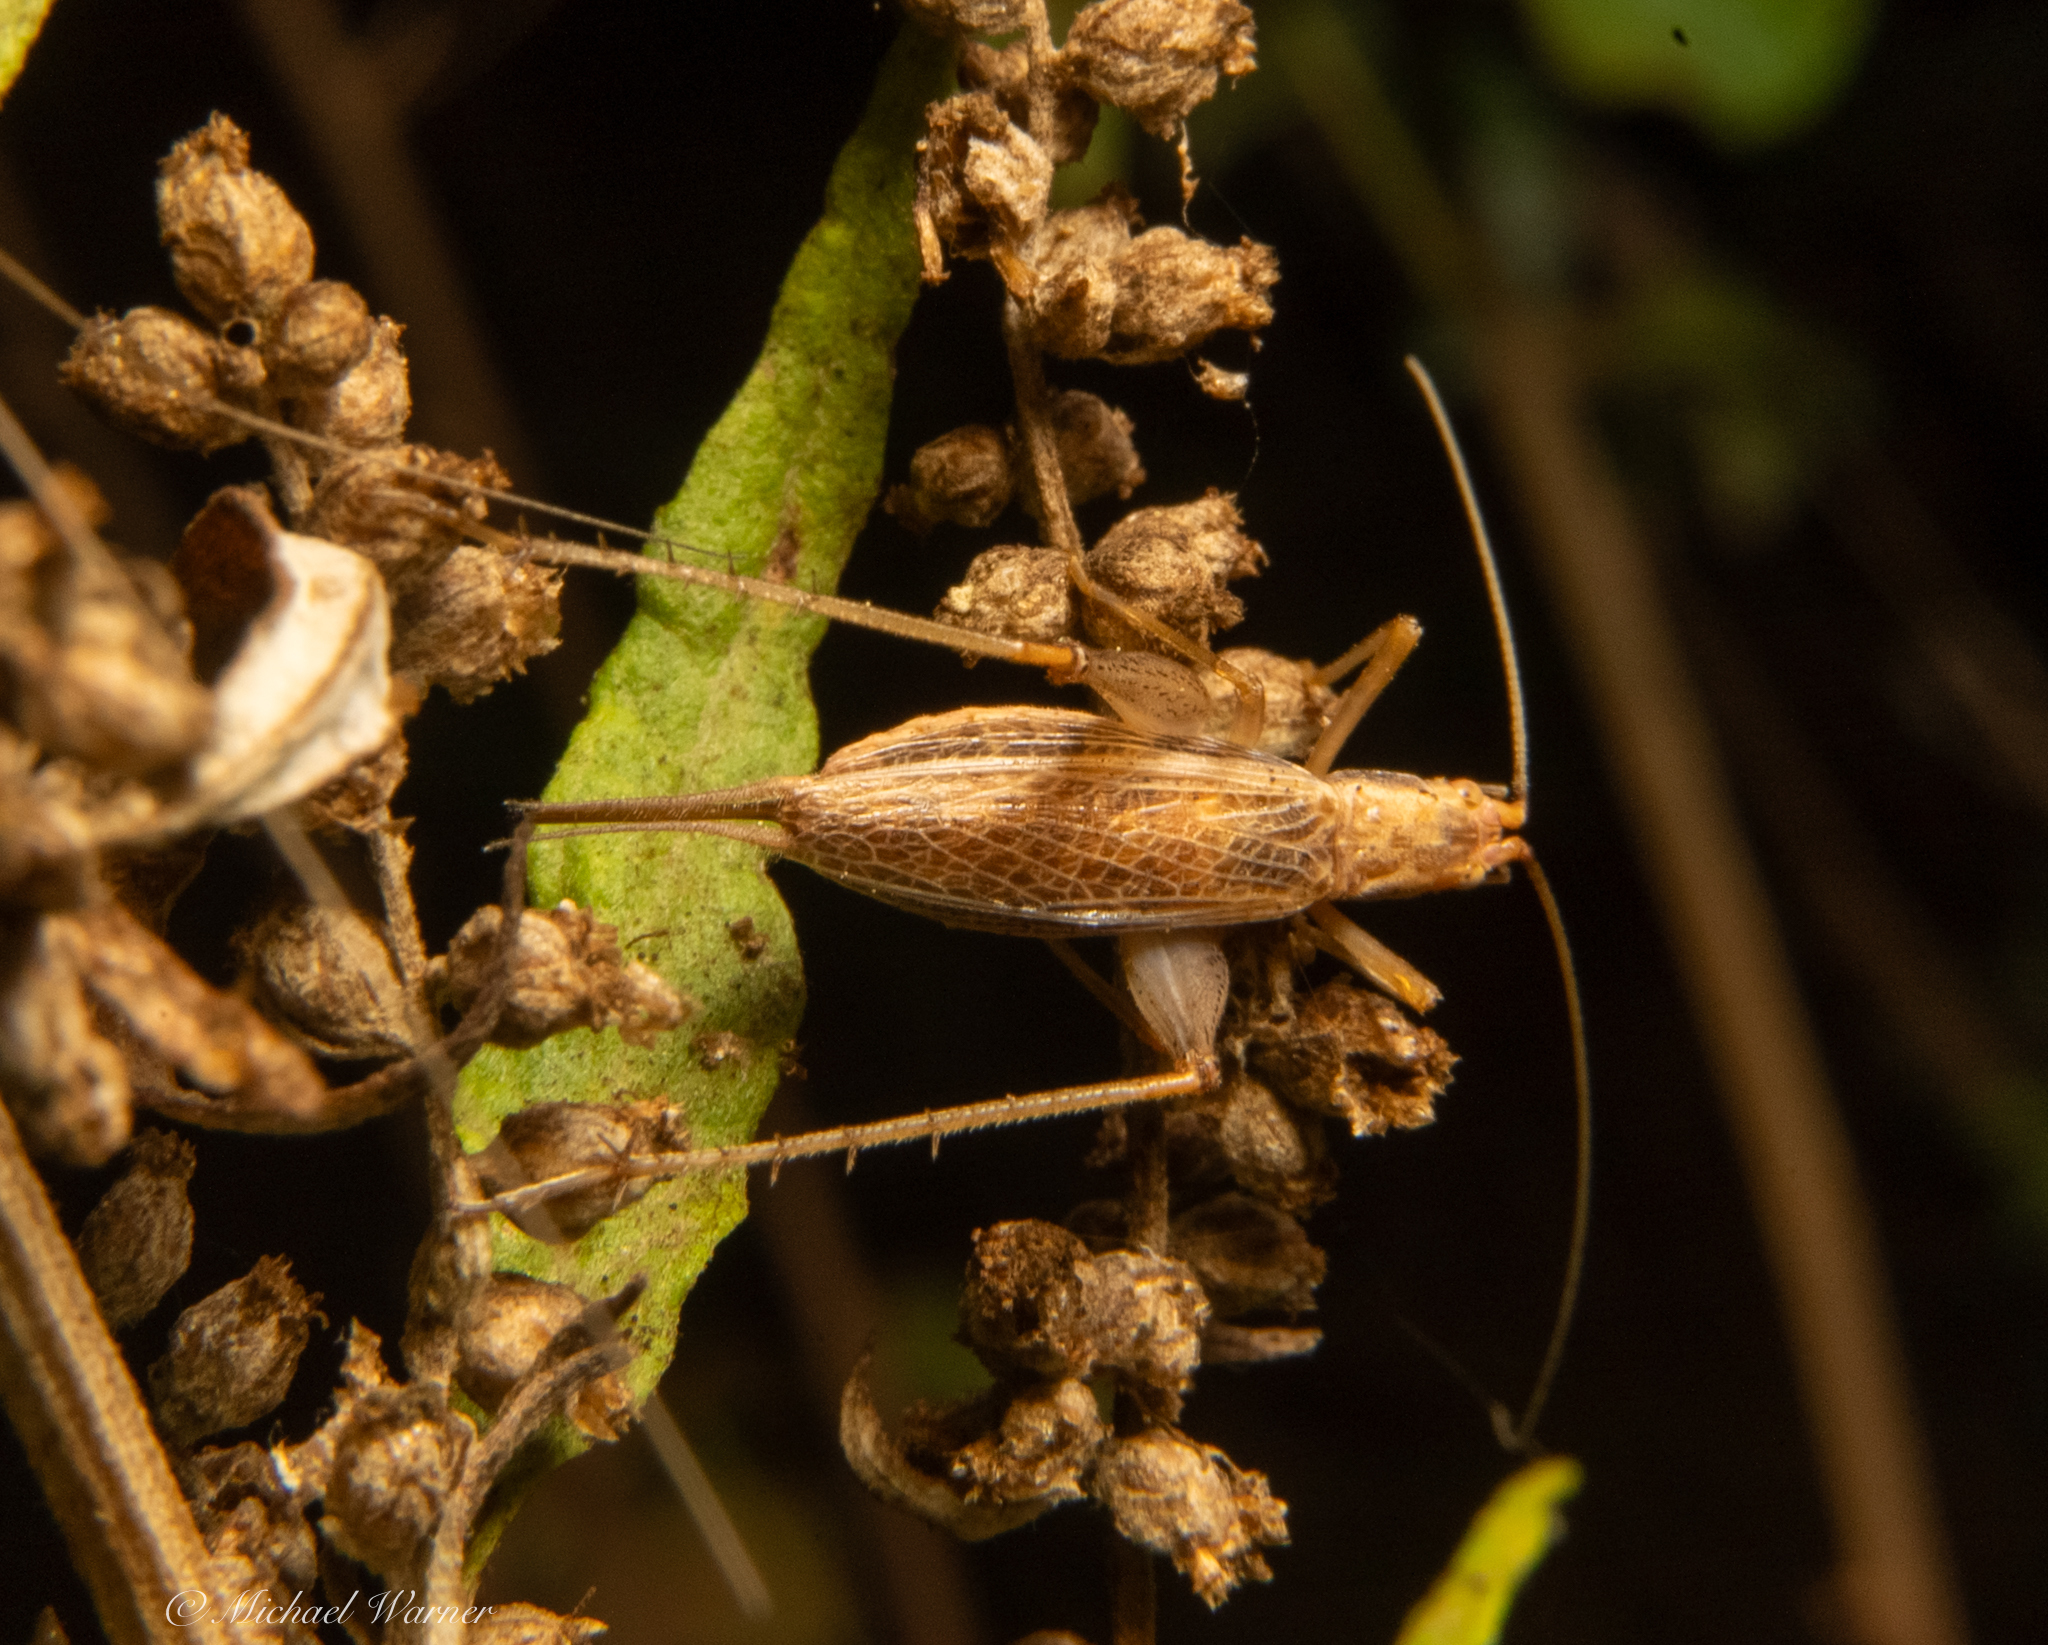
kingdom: Animalia
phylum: Arthropoda
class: Insecta
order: Orthoptera
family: Gryllidae
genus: Oecanthus
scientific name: Oecanthus californicus
